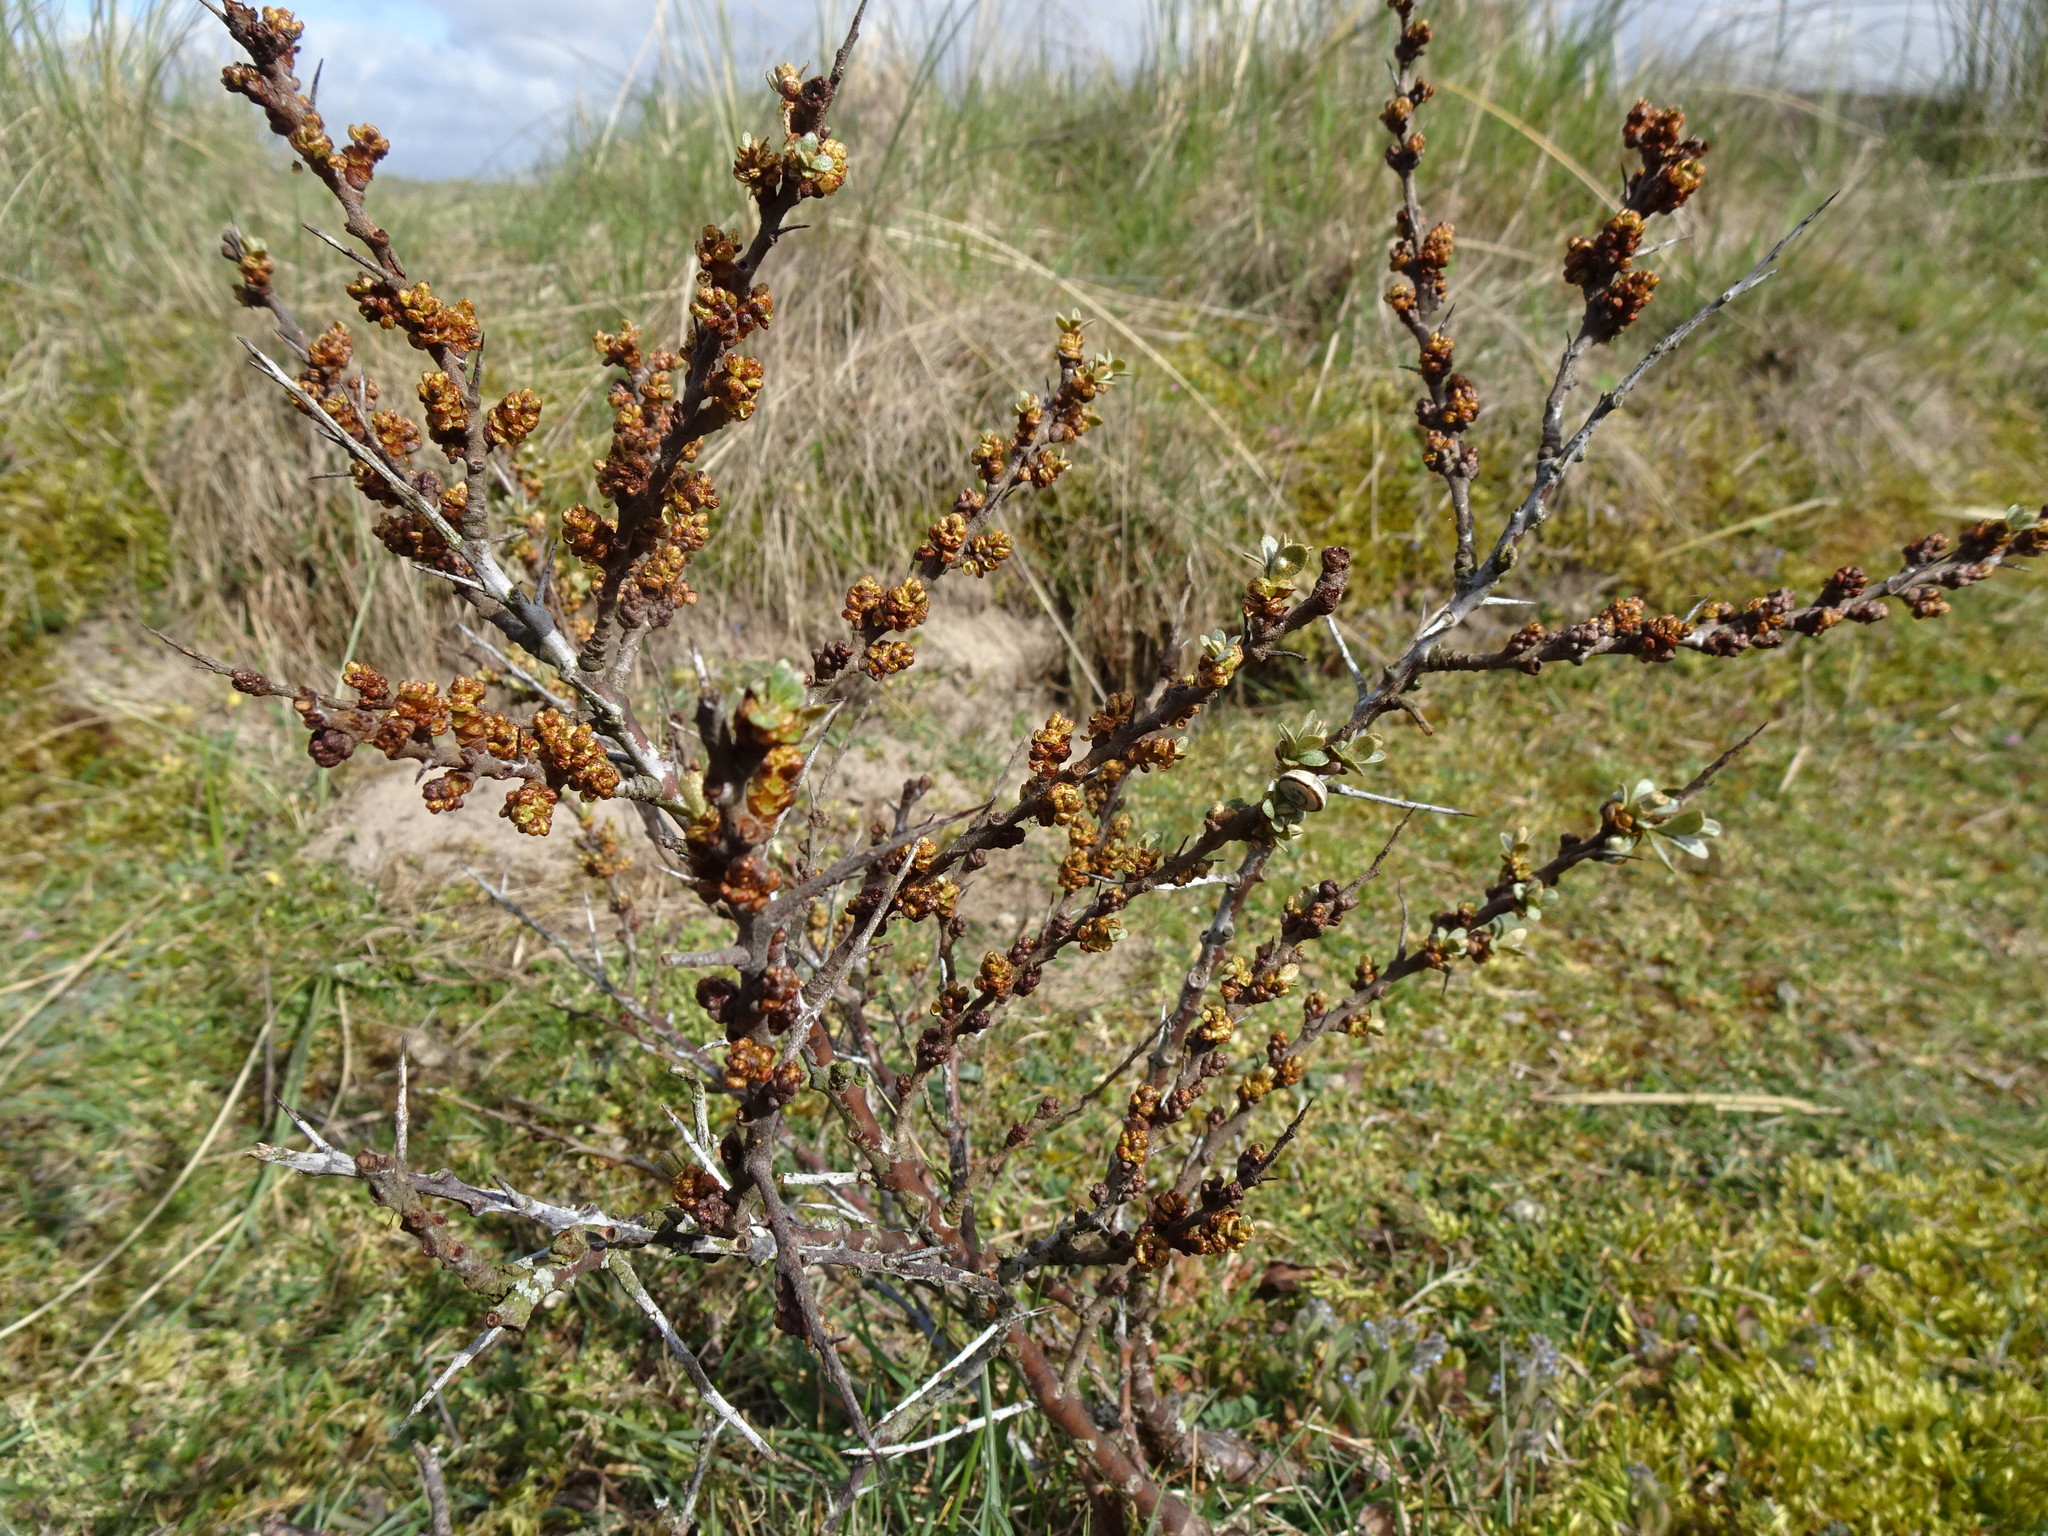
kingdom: Plantae
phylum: Tracheophyta
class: Magnoliopsida
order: Rosales
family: Elaeagnaceae
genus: Hippophae
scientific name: Hippophae rhamnoides
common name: Sea-buckthorn
